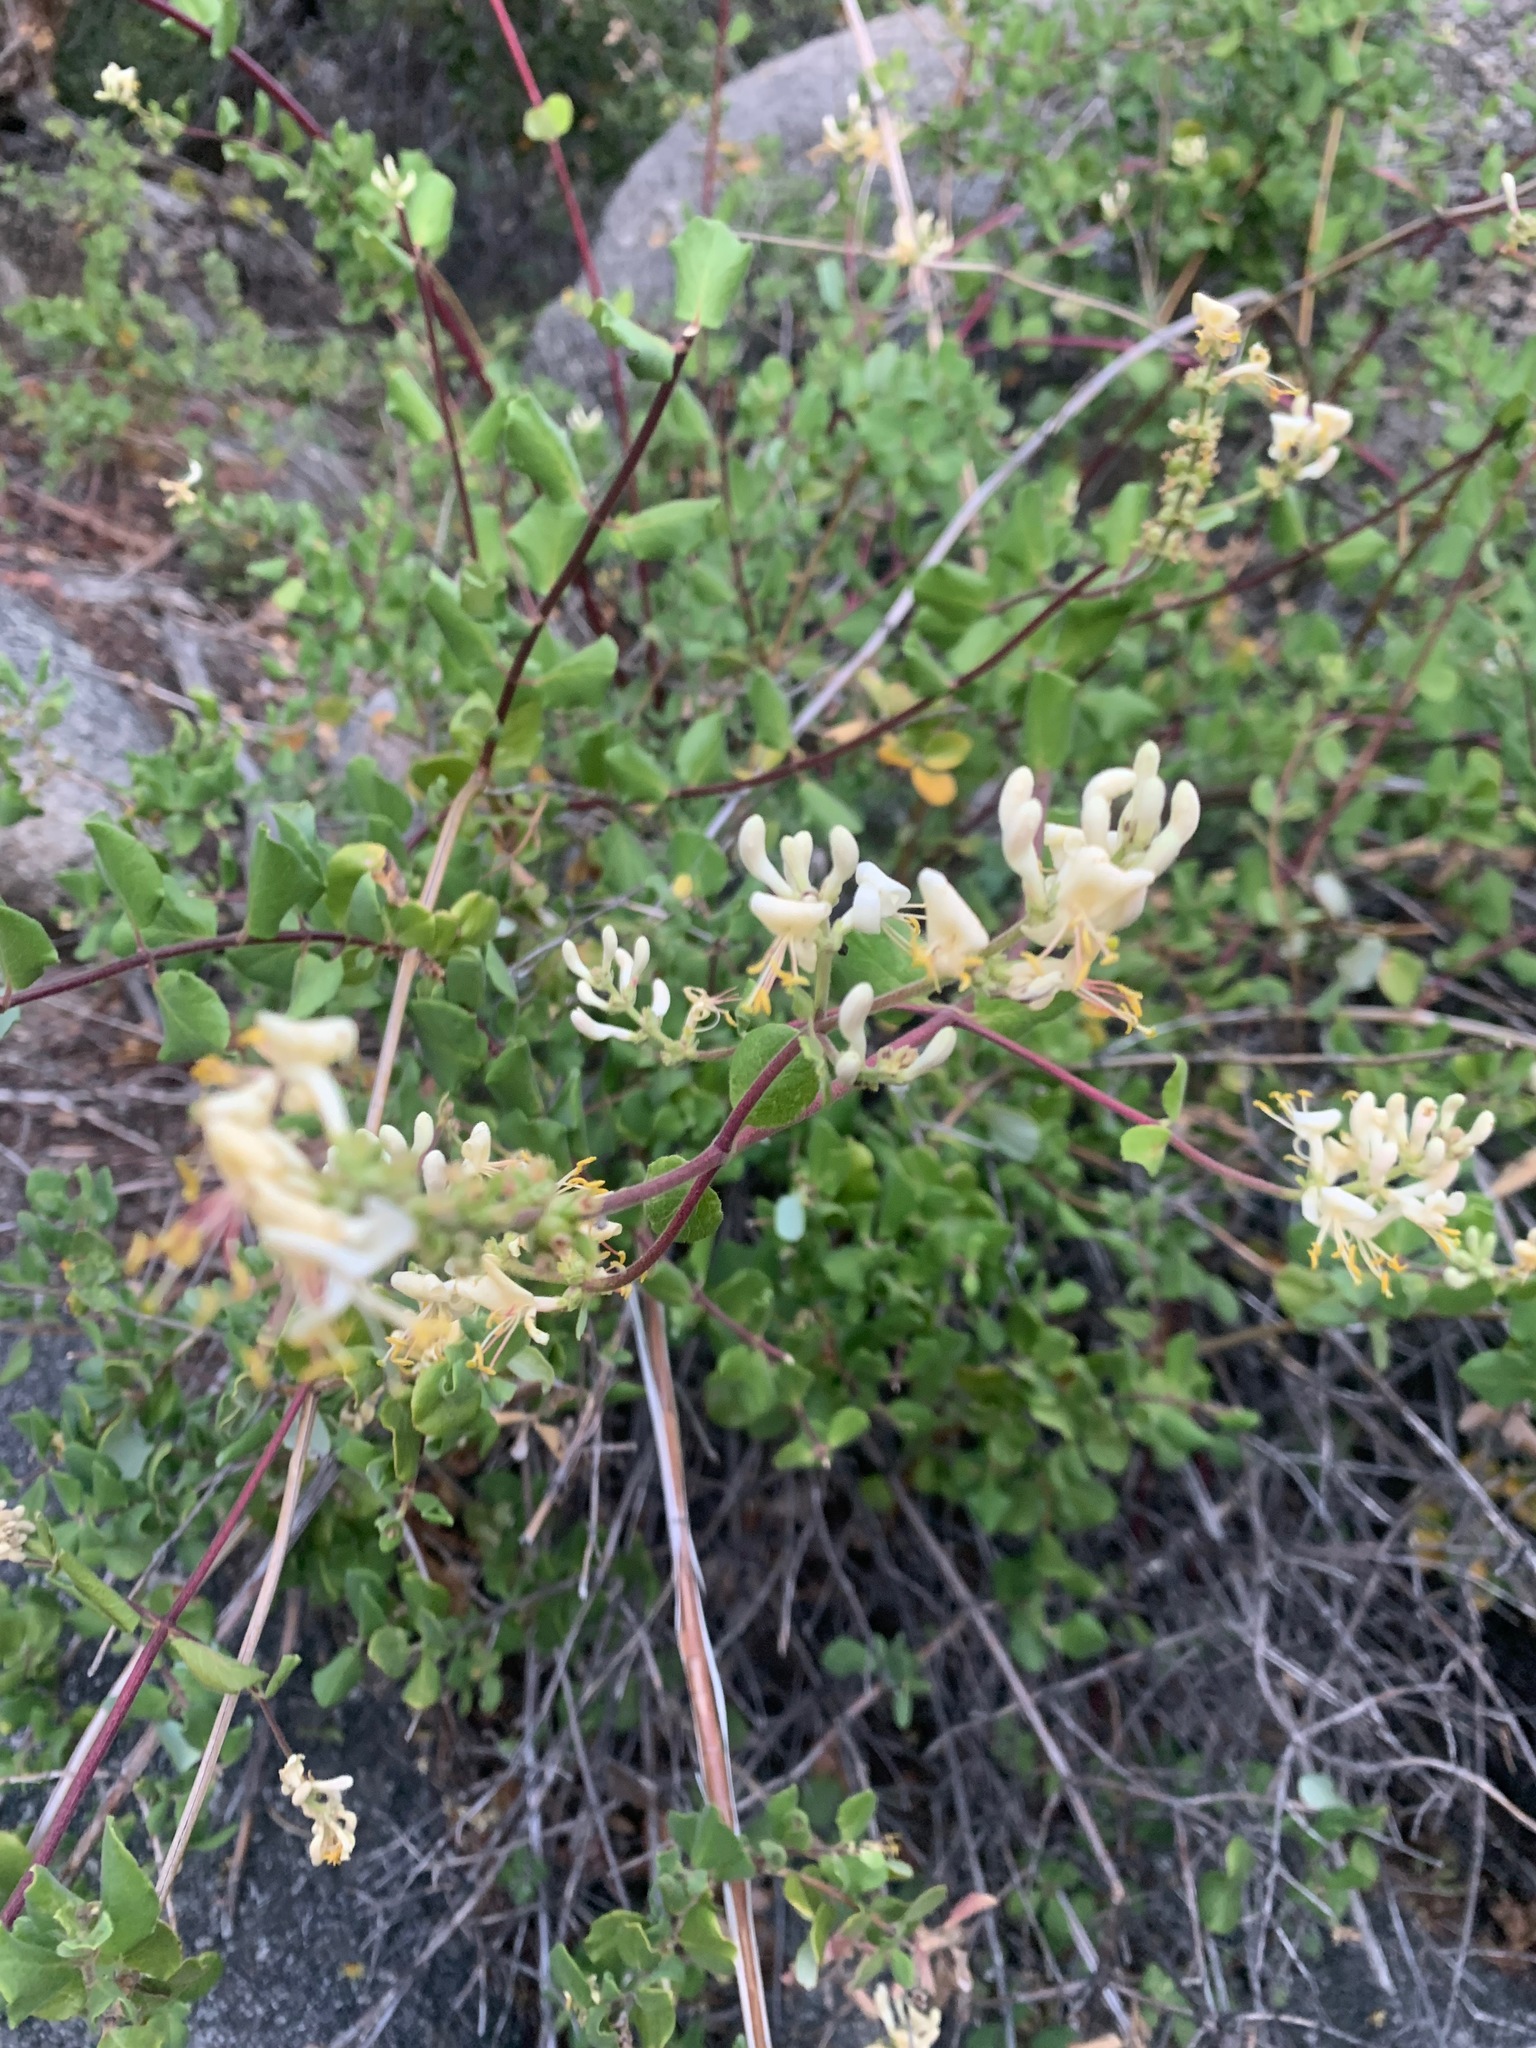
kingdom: Plantae
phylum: Tracheophyta
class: Magnoliopsida
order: Dipsacales
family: Caprifoliaceae
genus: Lonicera
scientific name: Lonicera subspicata
